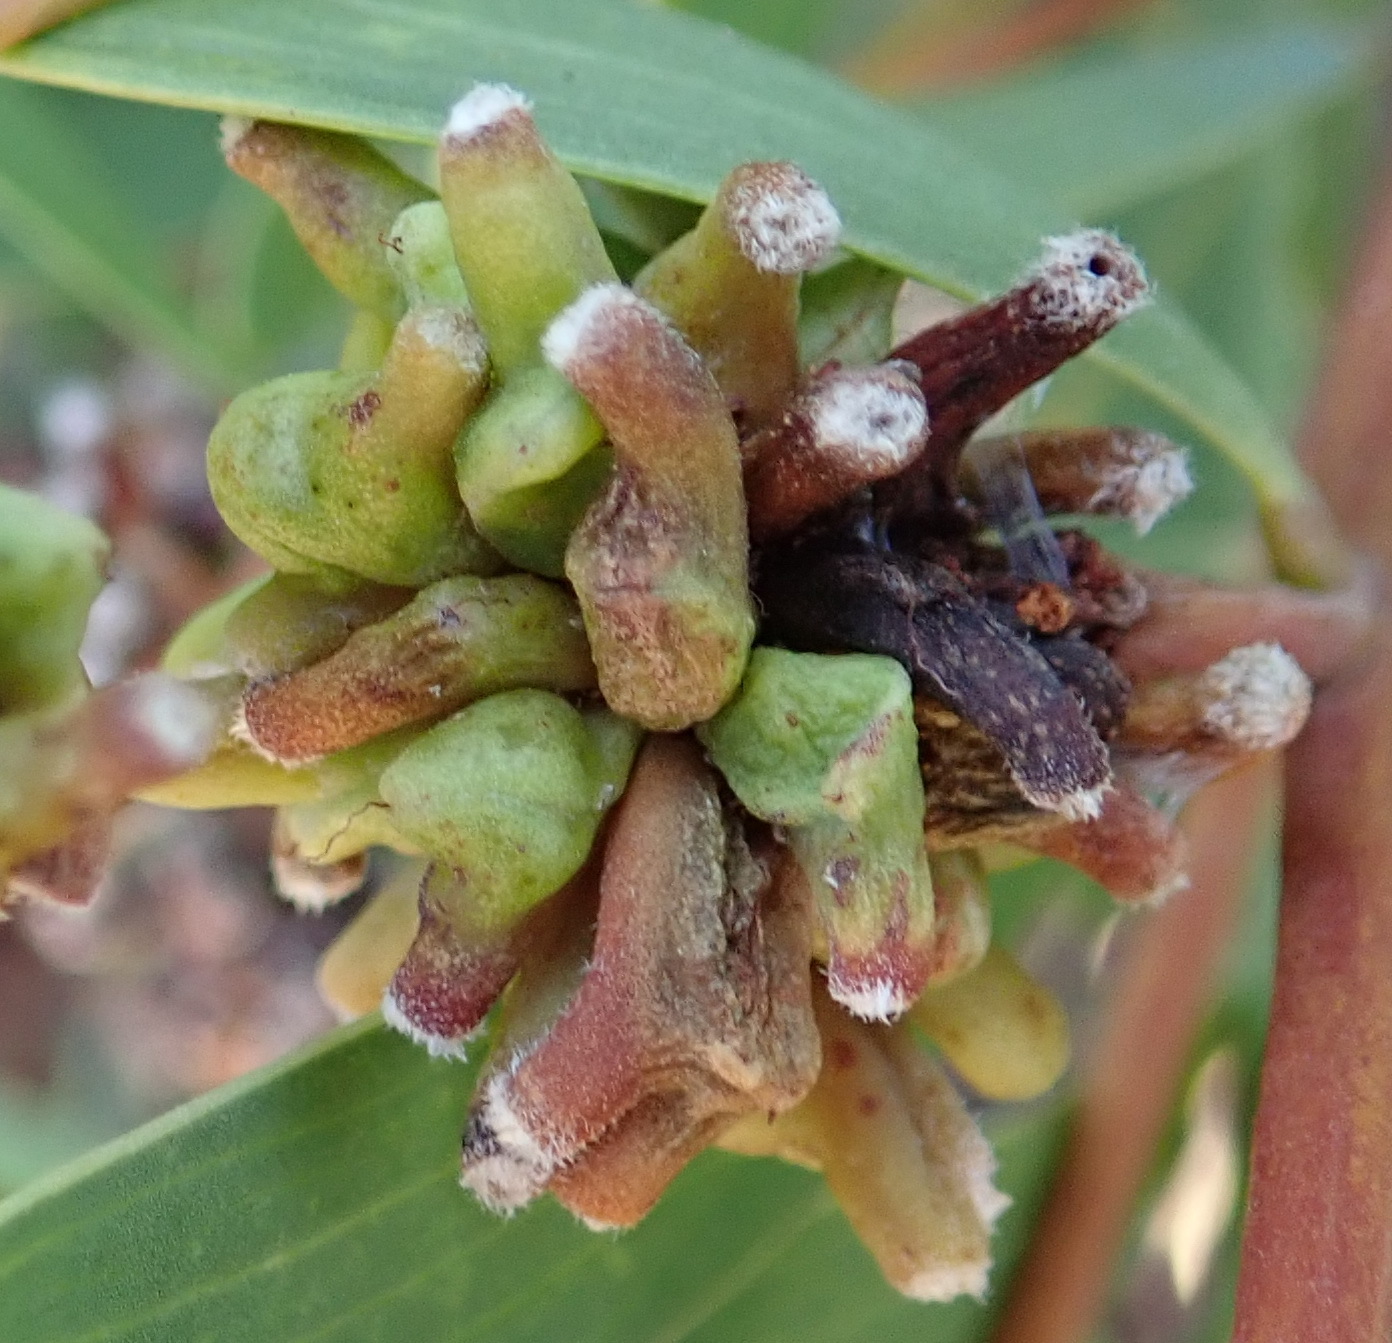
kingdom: Animalia
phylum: Arthropoda
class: Insecta
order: Diptera
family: Cecidomyiidae
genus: Dasineura
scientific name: Dasineura dielsi
